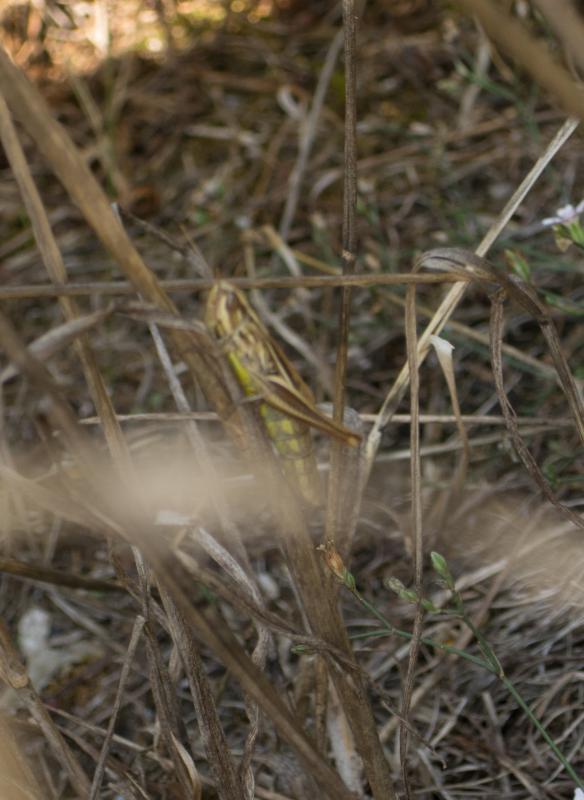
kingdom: Animalia
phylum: Arthropoda
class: Insecta
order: Orthoptera
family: Acrididae
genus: Euchorthippus
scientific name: Euchorthippus declivus
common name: Common straw grasshopper
